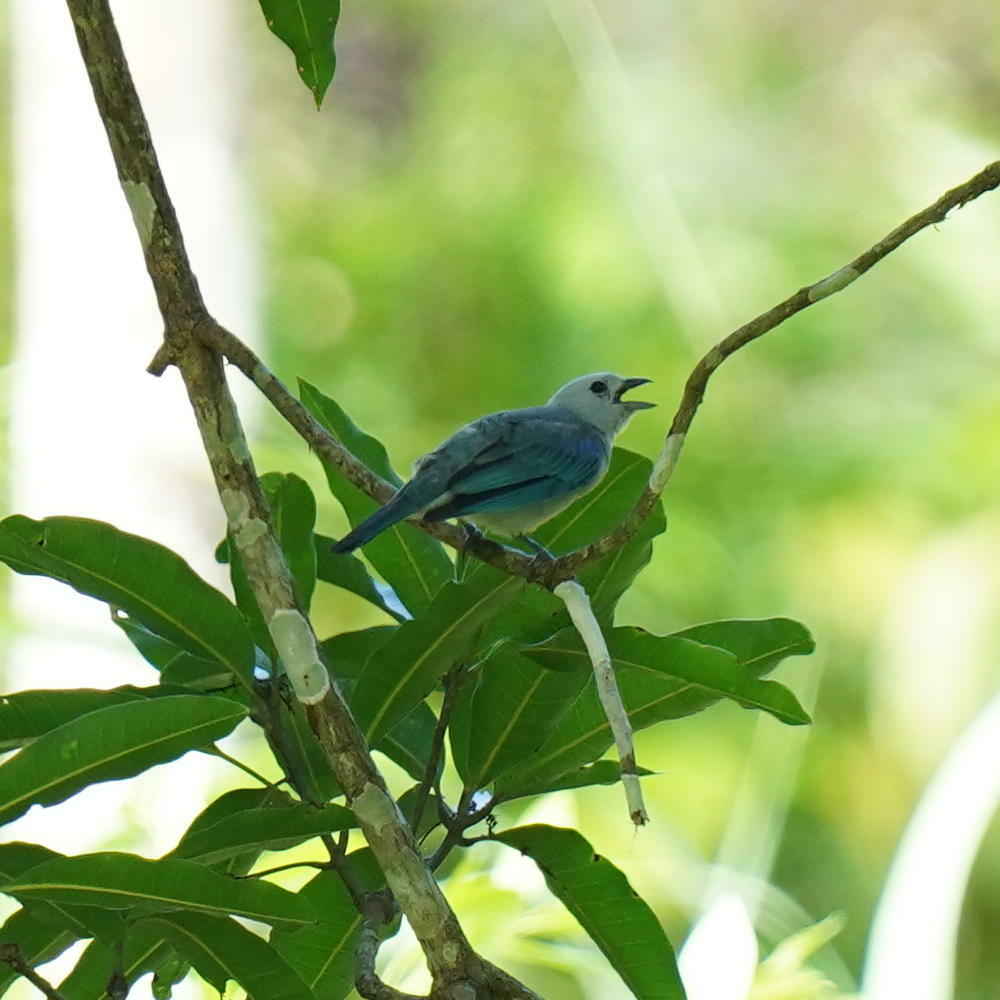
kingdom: Animalia
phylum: Chordata
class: Aves
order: Passeriformes
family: Thraupidae
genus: Thraupis
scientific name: Thraupis episcopus
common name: Blue-grey tanager
